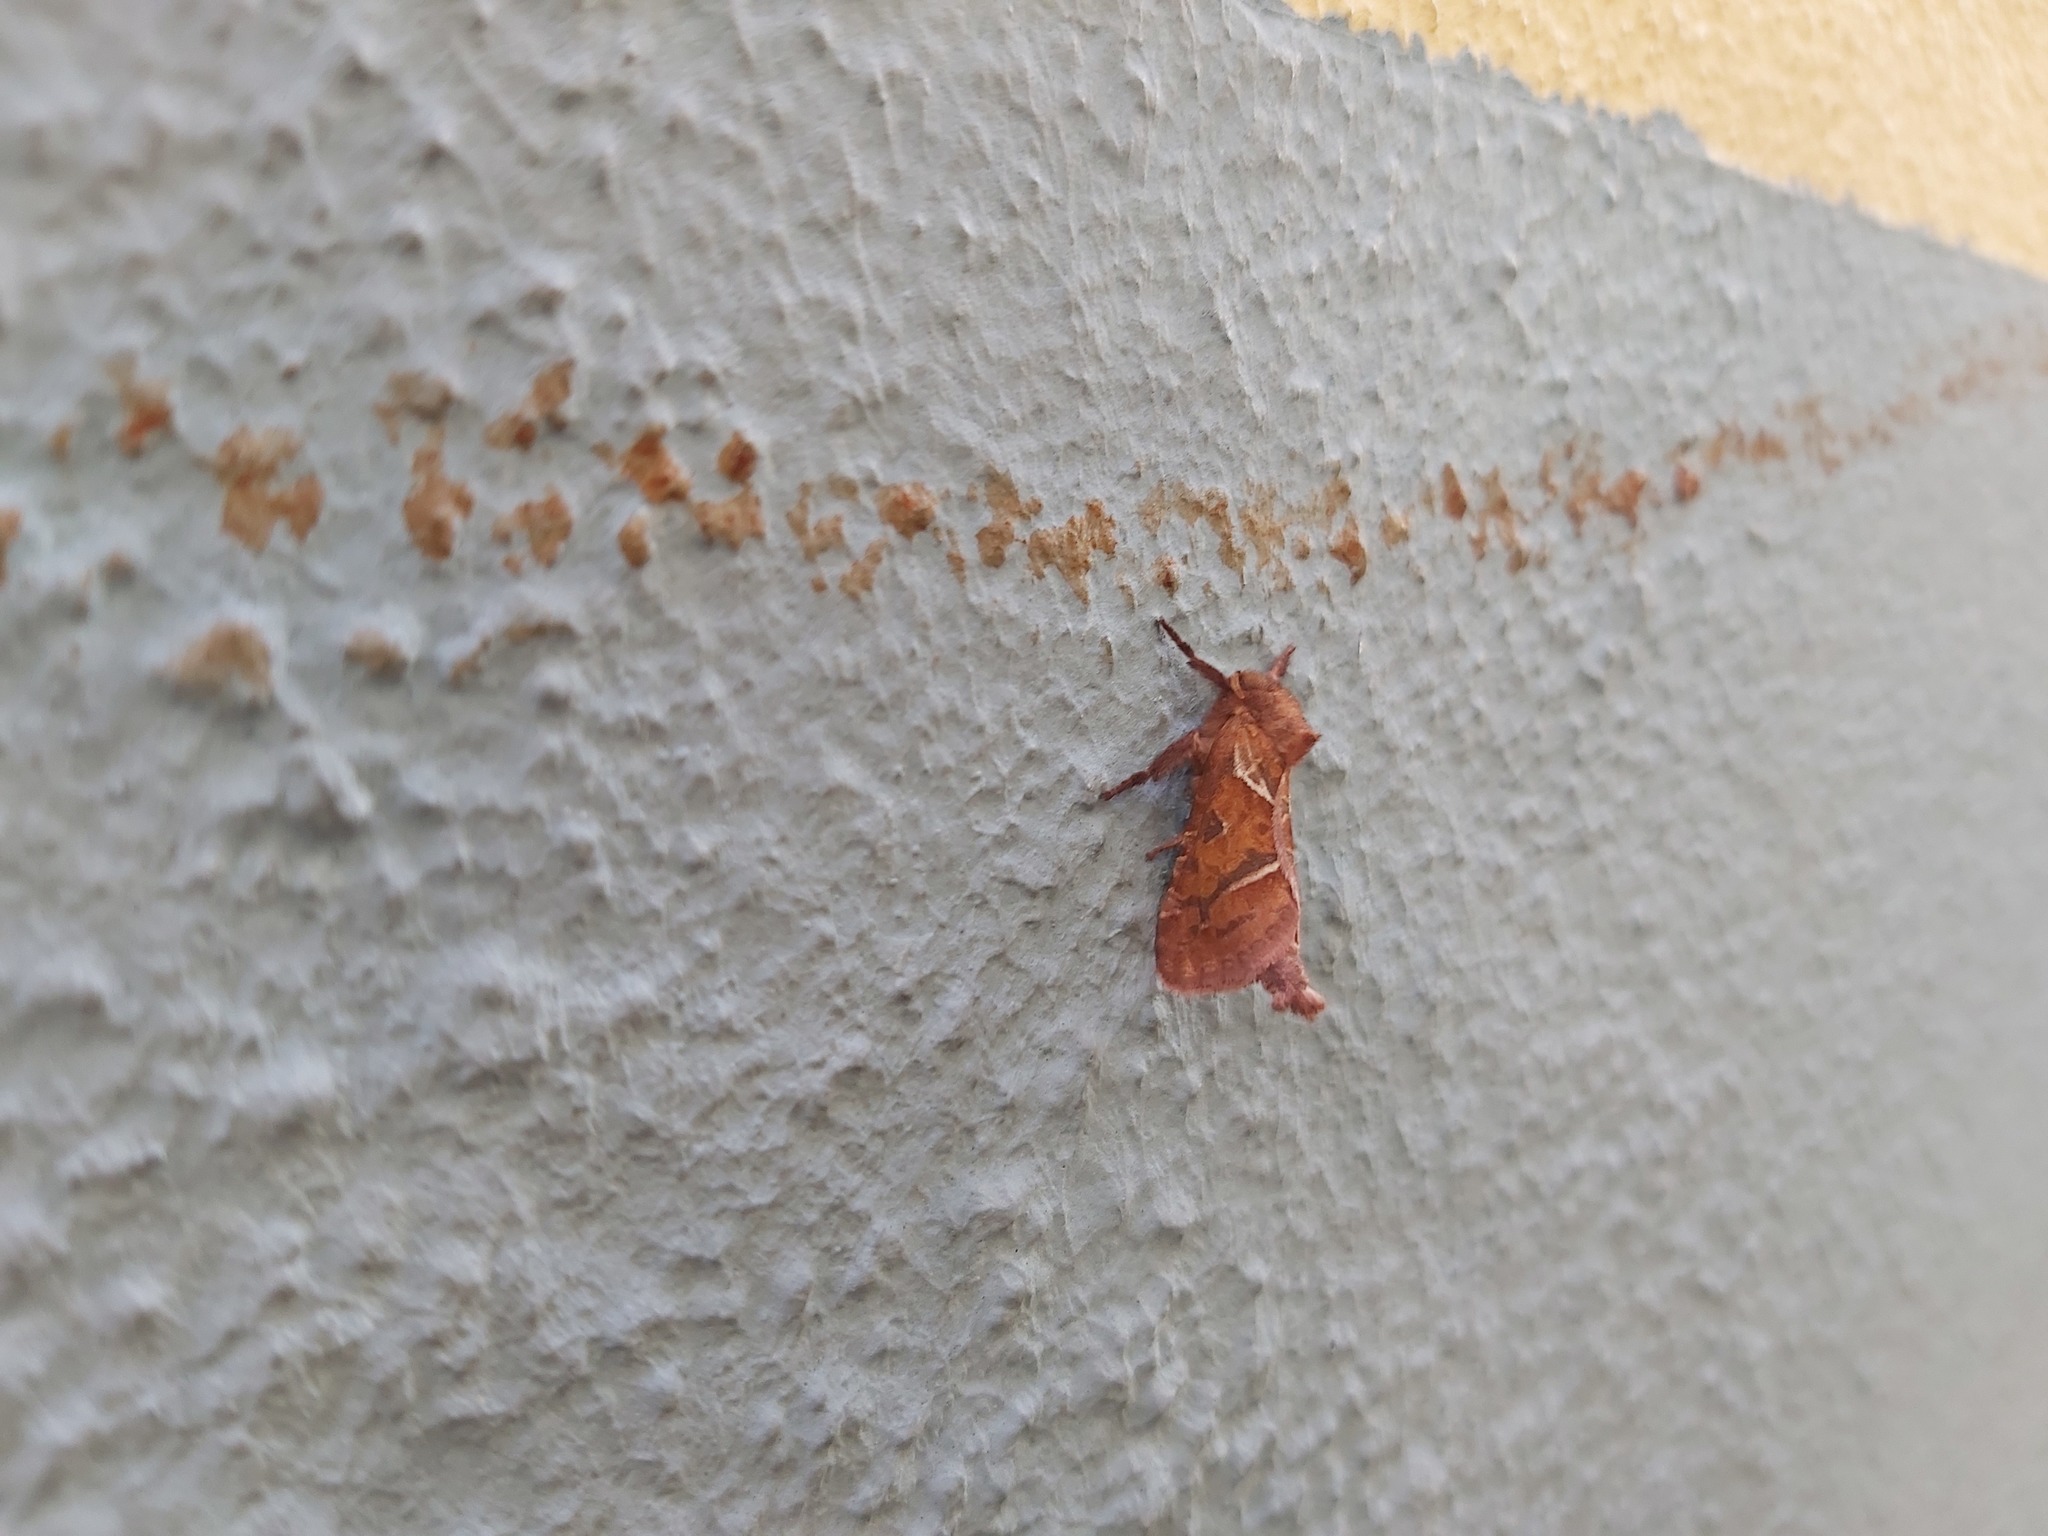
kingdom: Animalia
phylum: Arthropoda
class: Insecta
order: Lepidoptera
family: Hepialidae
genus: Triodia
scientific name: Triodia sylvina
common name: Orange swift
